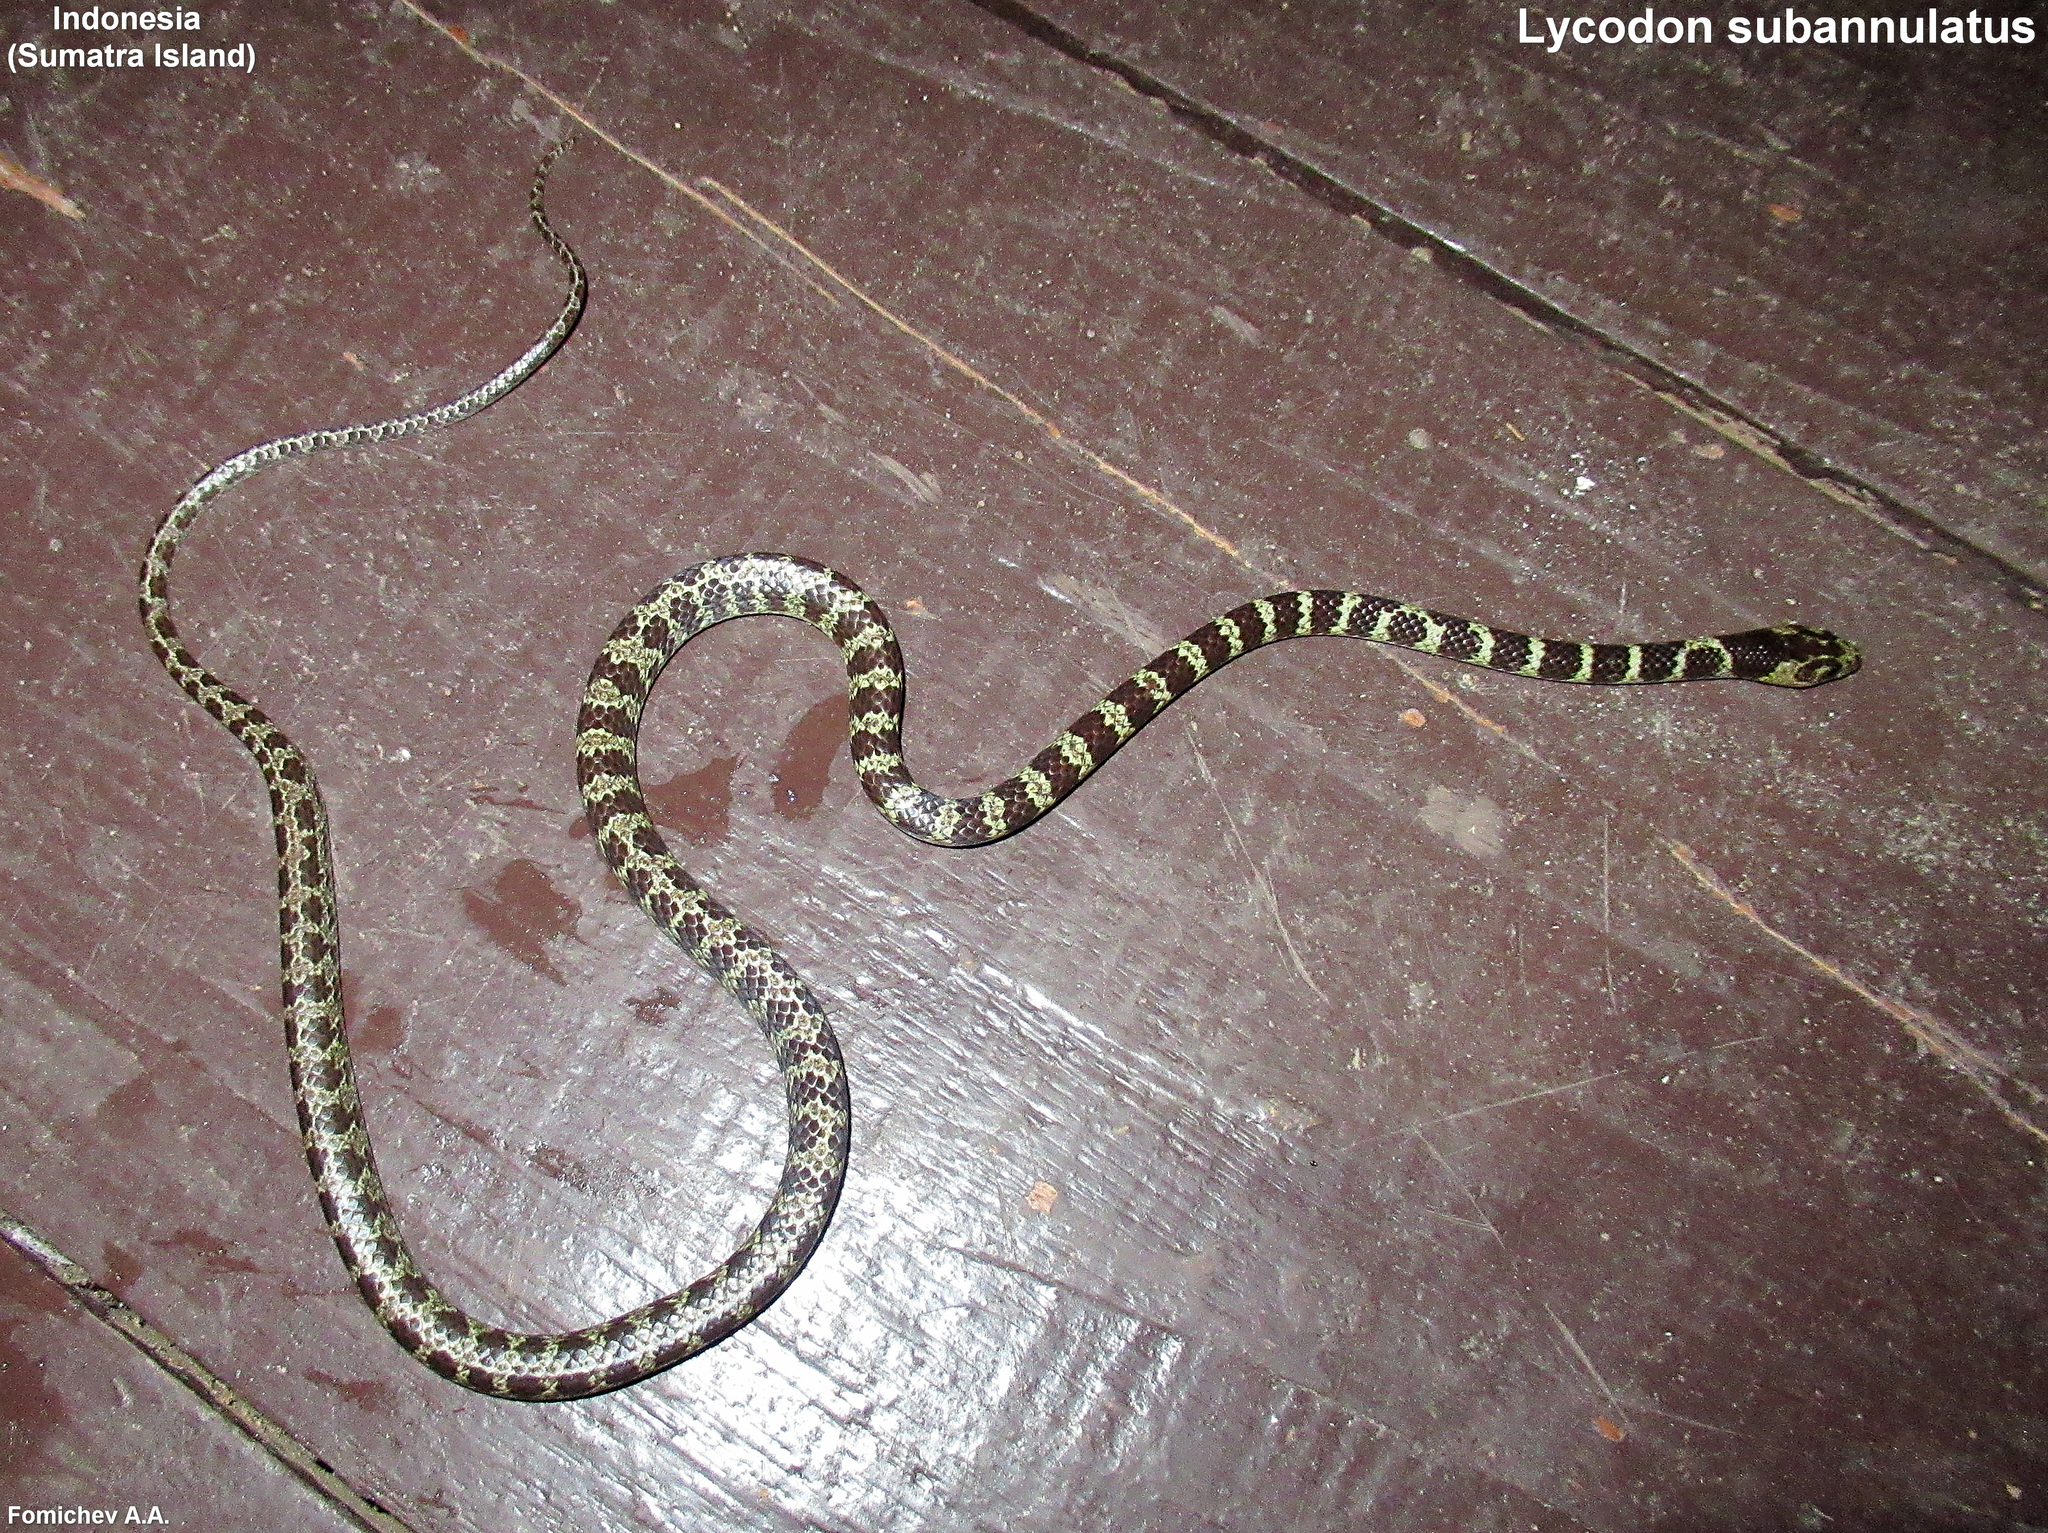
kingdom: Animalia
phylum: Chordata
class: Squamata
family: Colubridae
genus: Lycodon
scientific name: Lycodon subannulatus
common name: Malayan bridal snake
